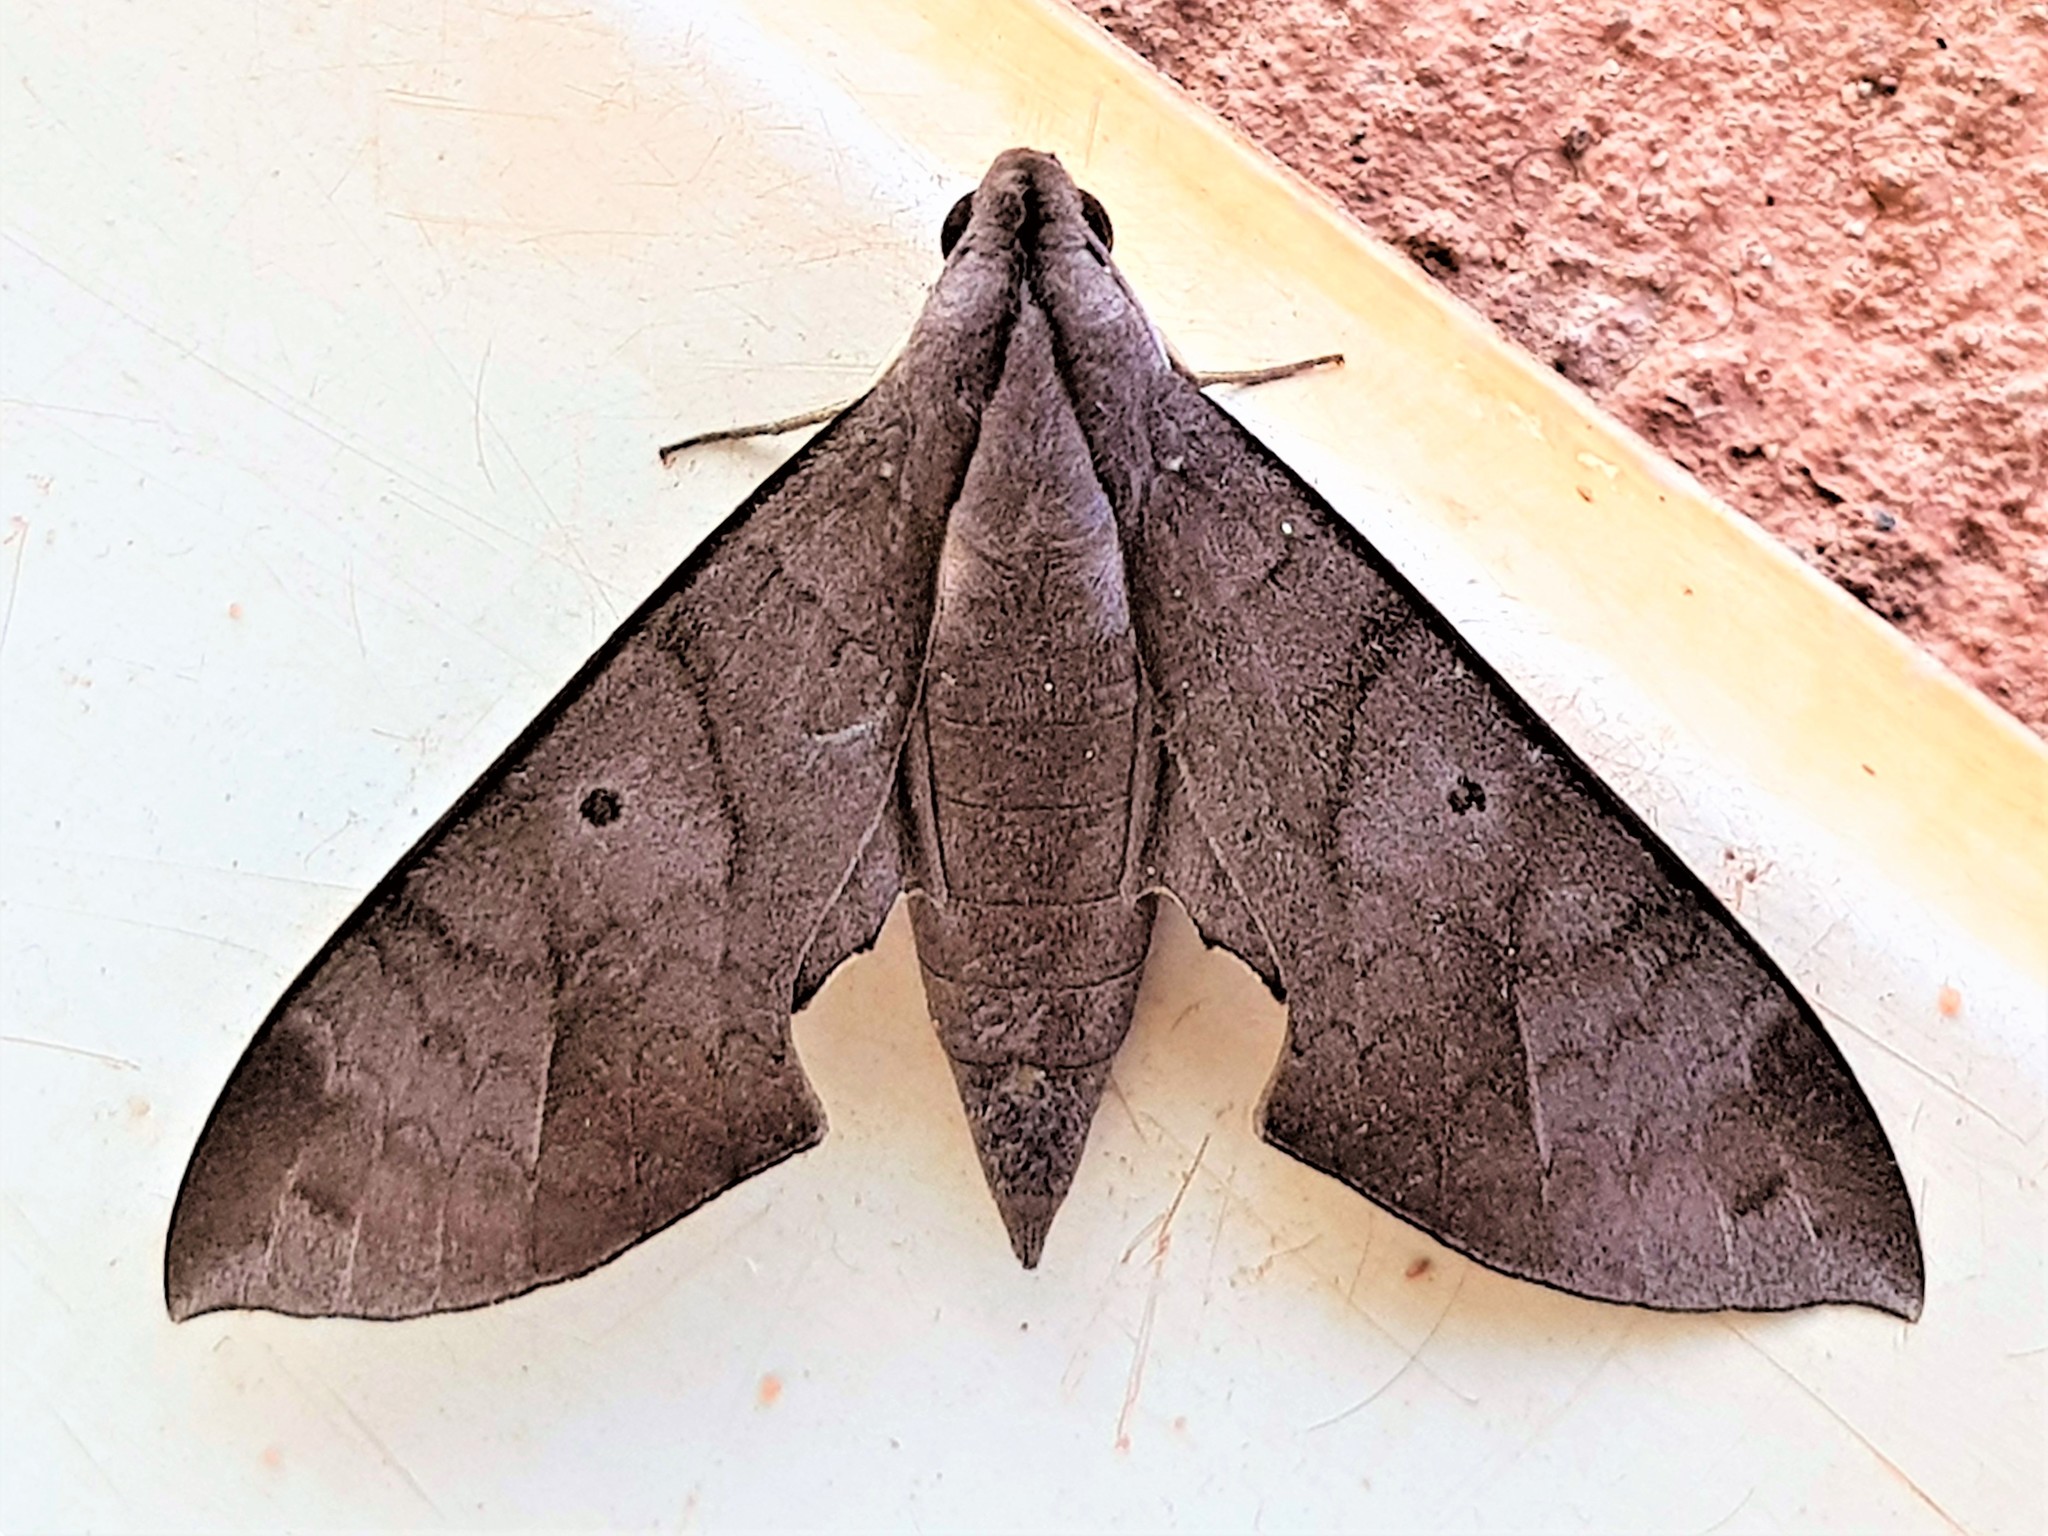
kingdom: Animalia
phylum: Arthropoda
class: Insecta
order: Lepidoptera
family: Sphingidae
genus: Pachylia
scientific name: Pachylia darceta
